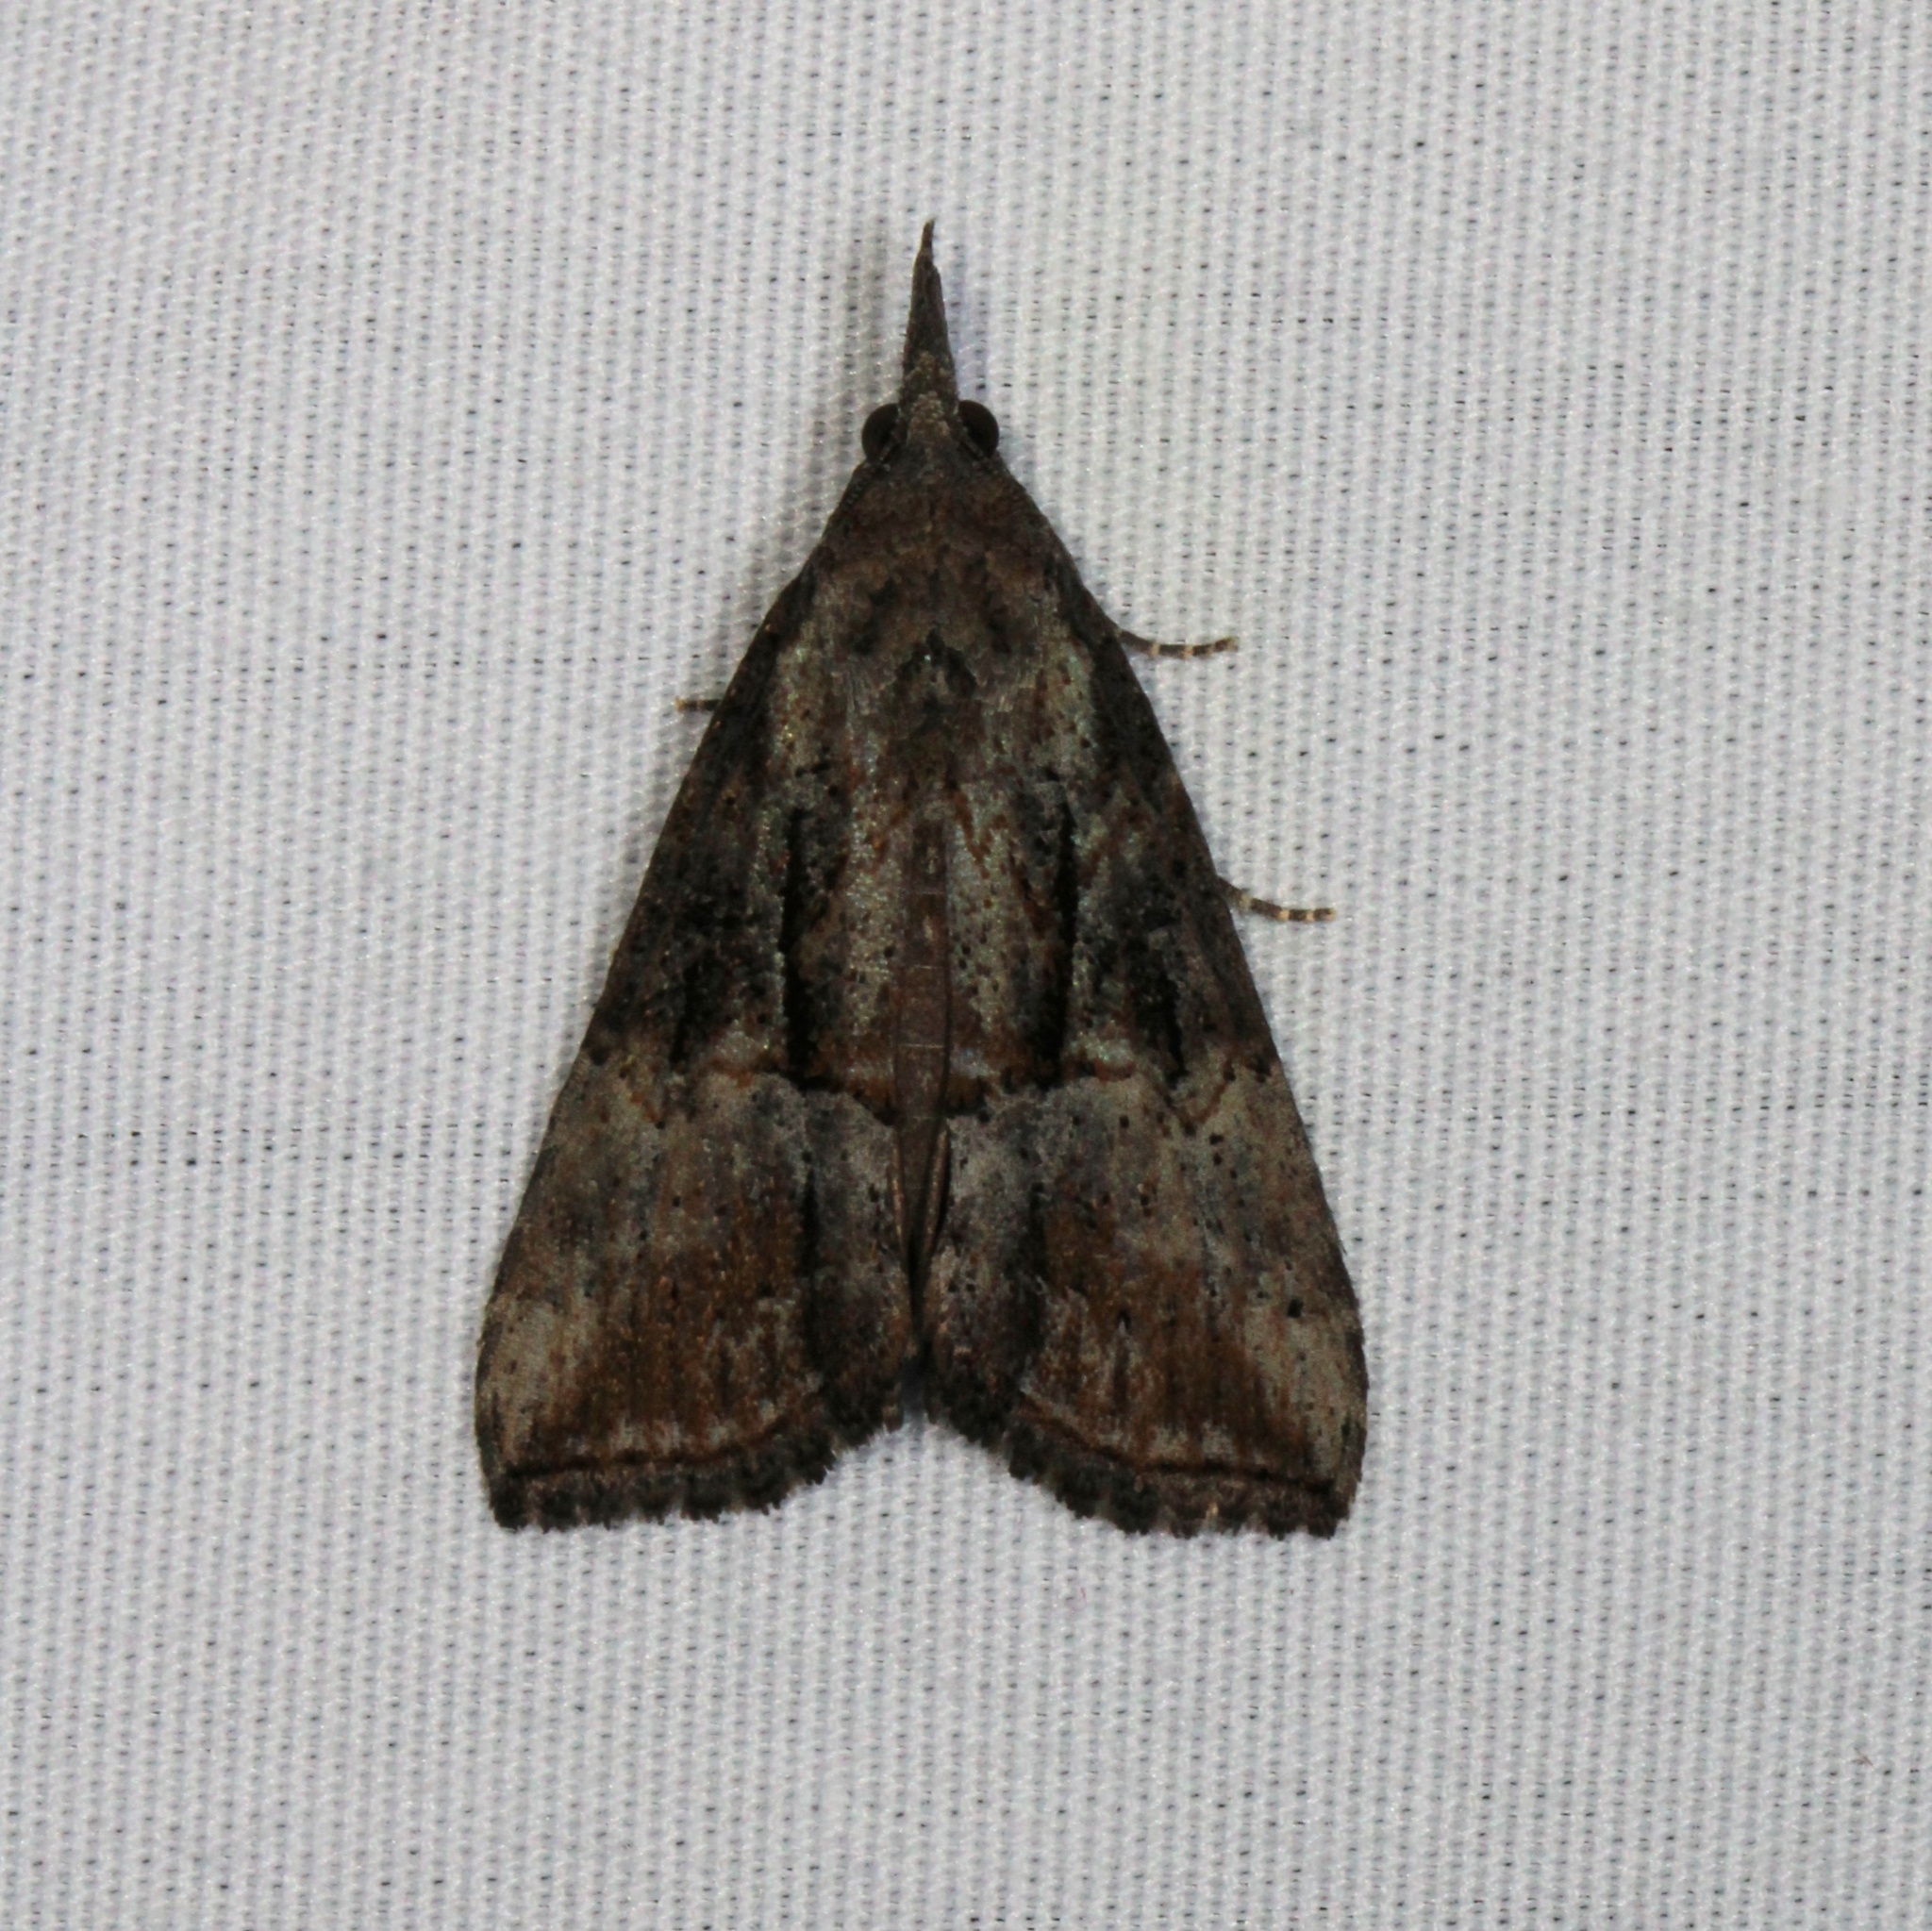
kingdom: Animalia
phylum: Arthropoda
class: Insecta
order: Lepidoptera
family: Erebidae
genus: Hypena
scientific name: Hypena scabra
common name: Green cloverworm
